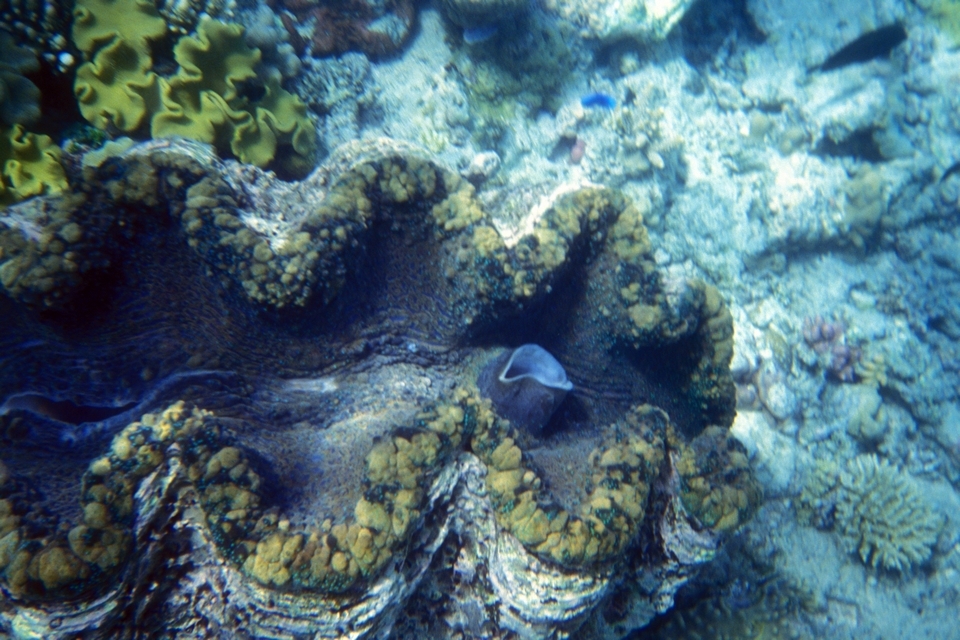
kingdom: Animalia
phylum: Mollusca
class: Bivalvia
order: Cardiida
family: Cardiidae
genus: Tridacna
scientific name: Tridacna gigas
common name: Giant clam
